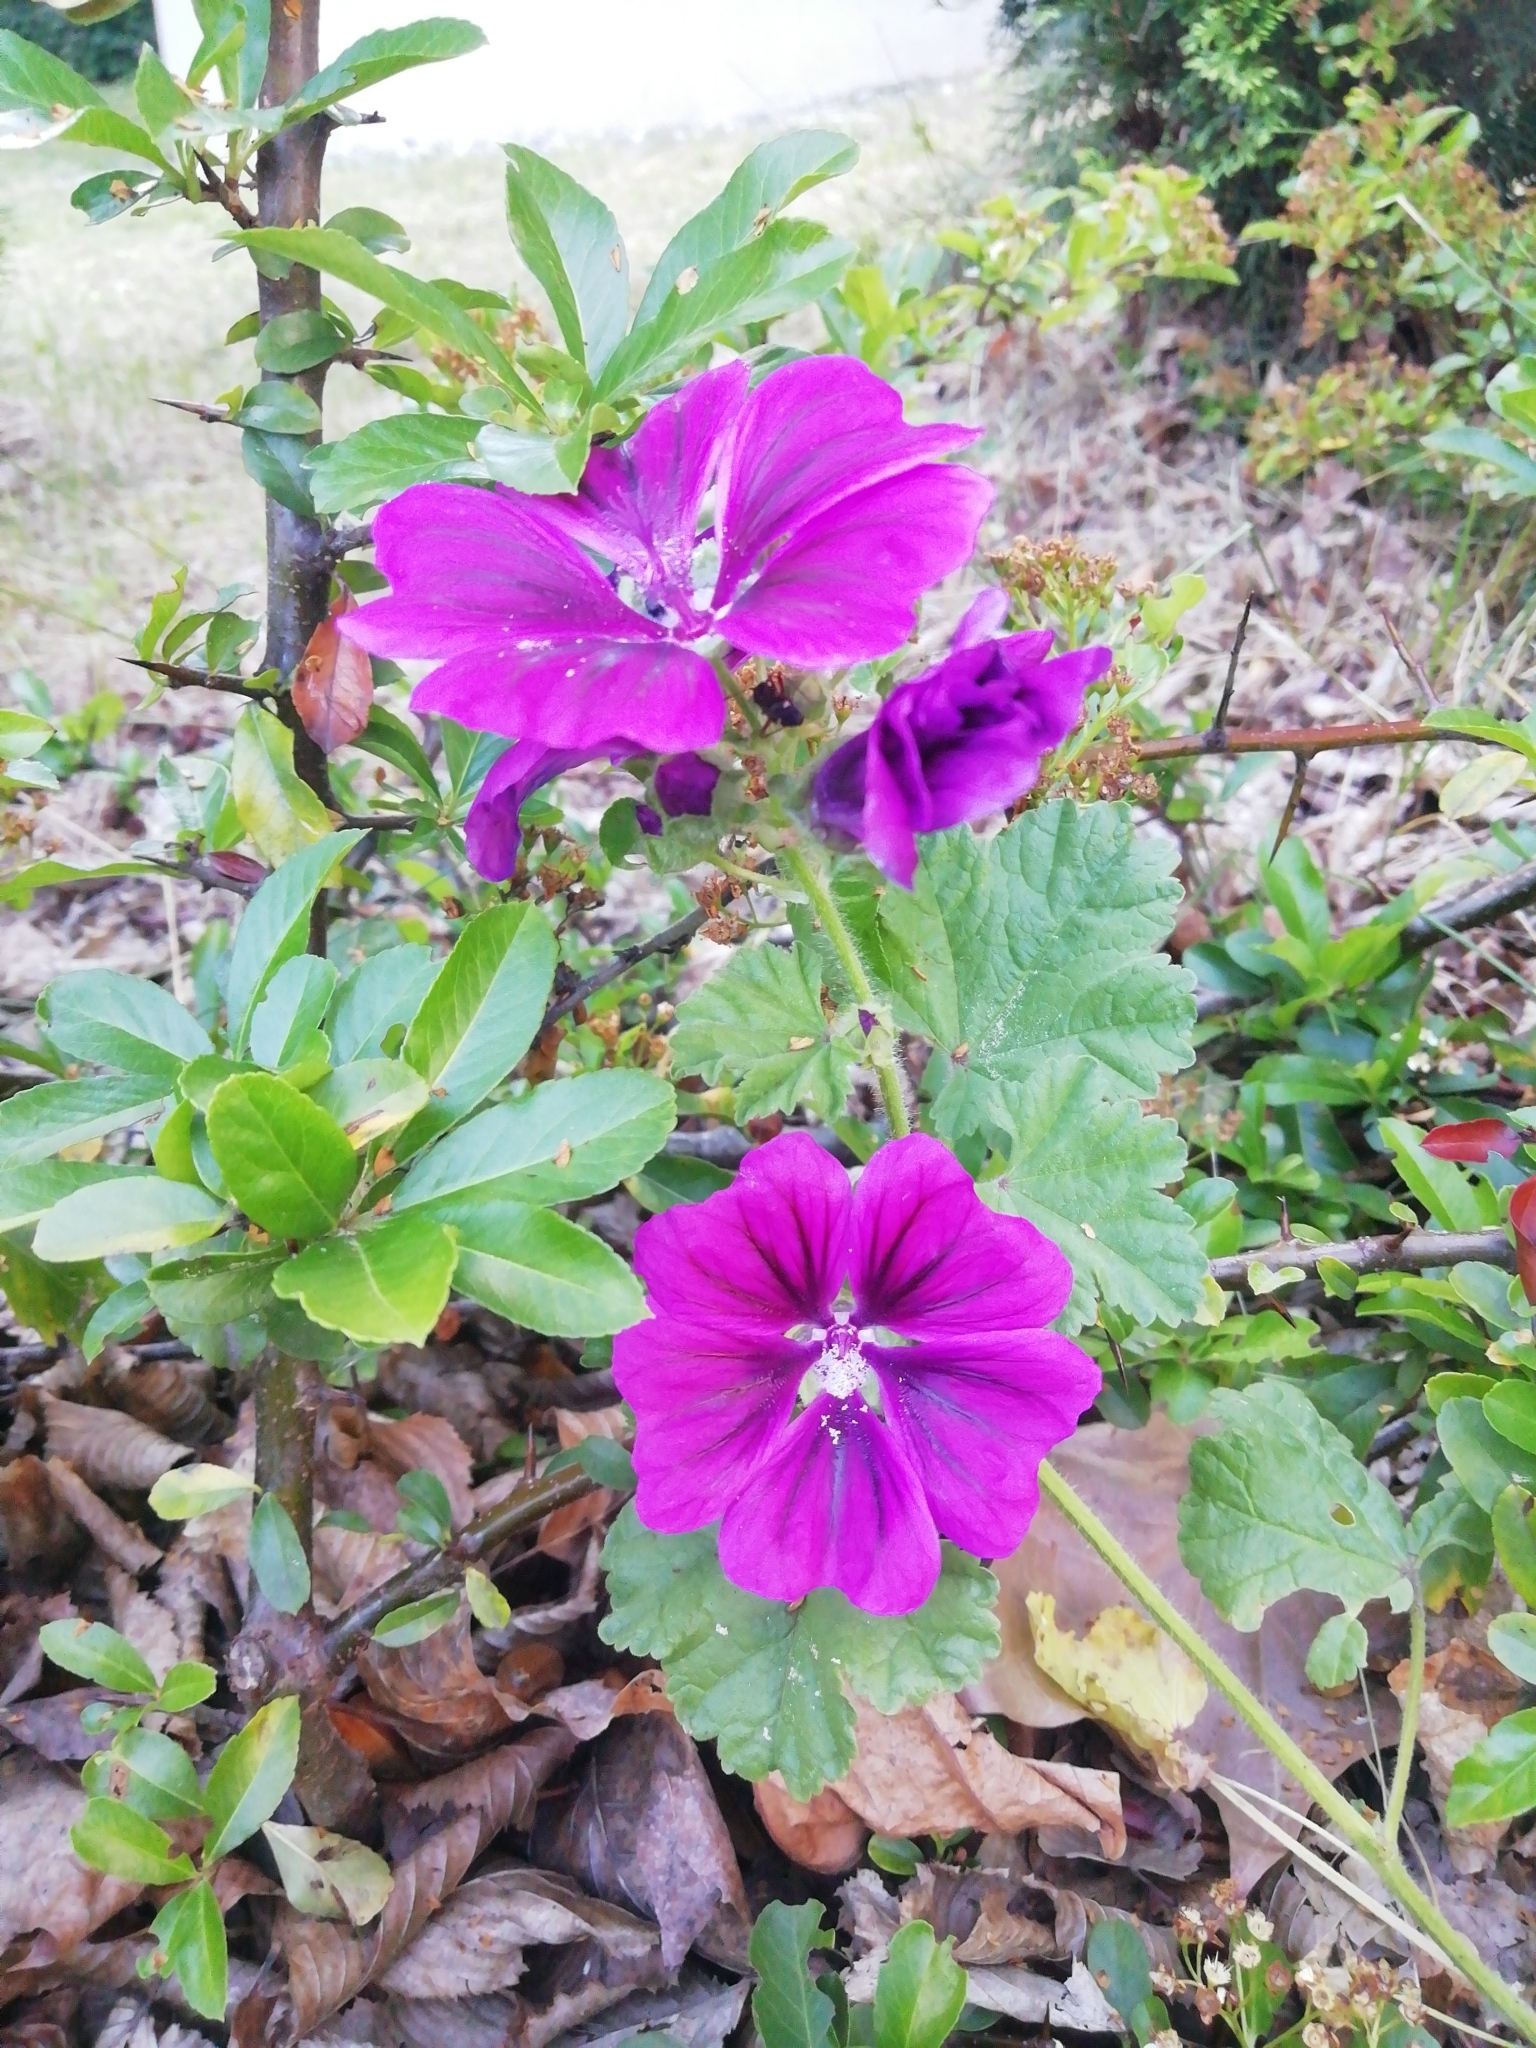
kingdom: Plantae
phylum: Tracheophyta
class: Magnoliopsida
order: Malvales
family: Malvaceae
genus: Malva
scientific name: Malva sylvestris
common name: Common mallow
